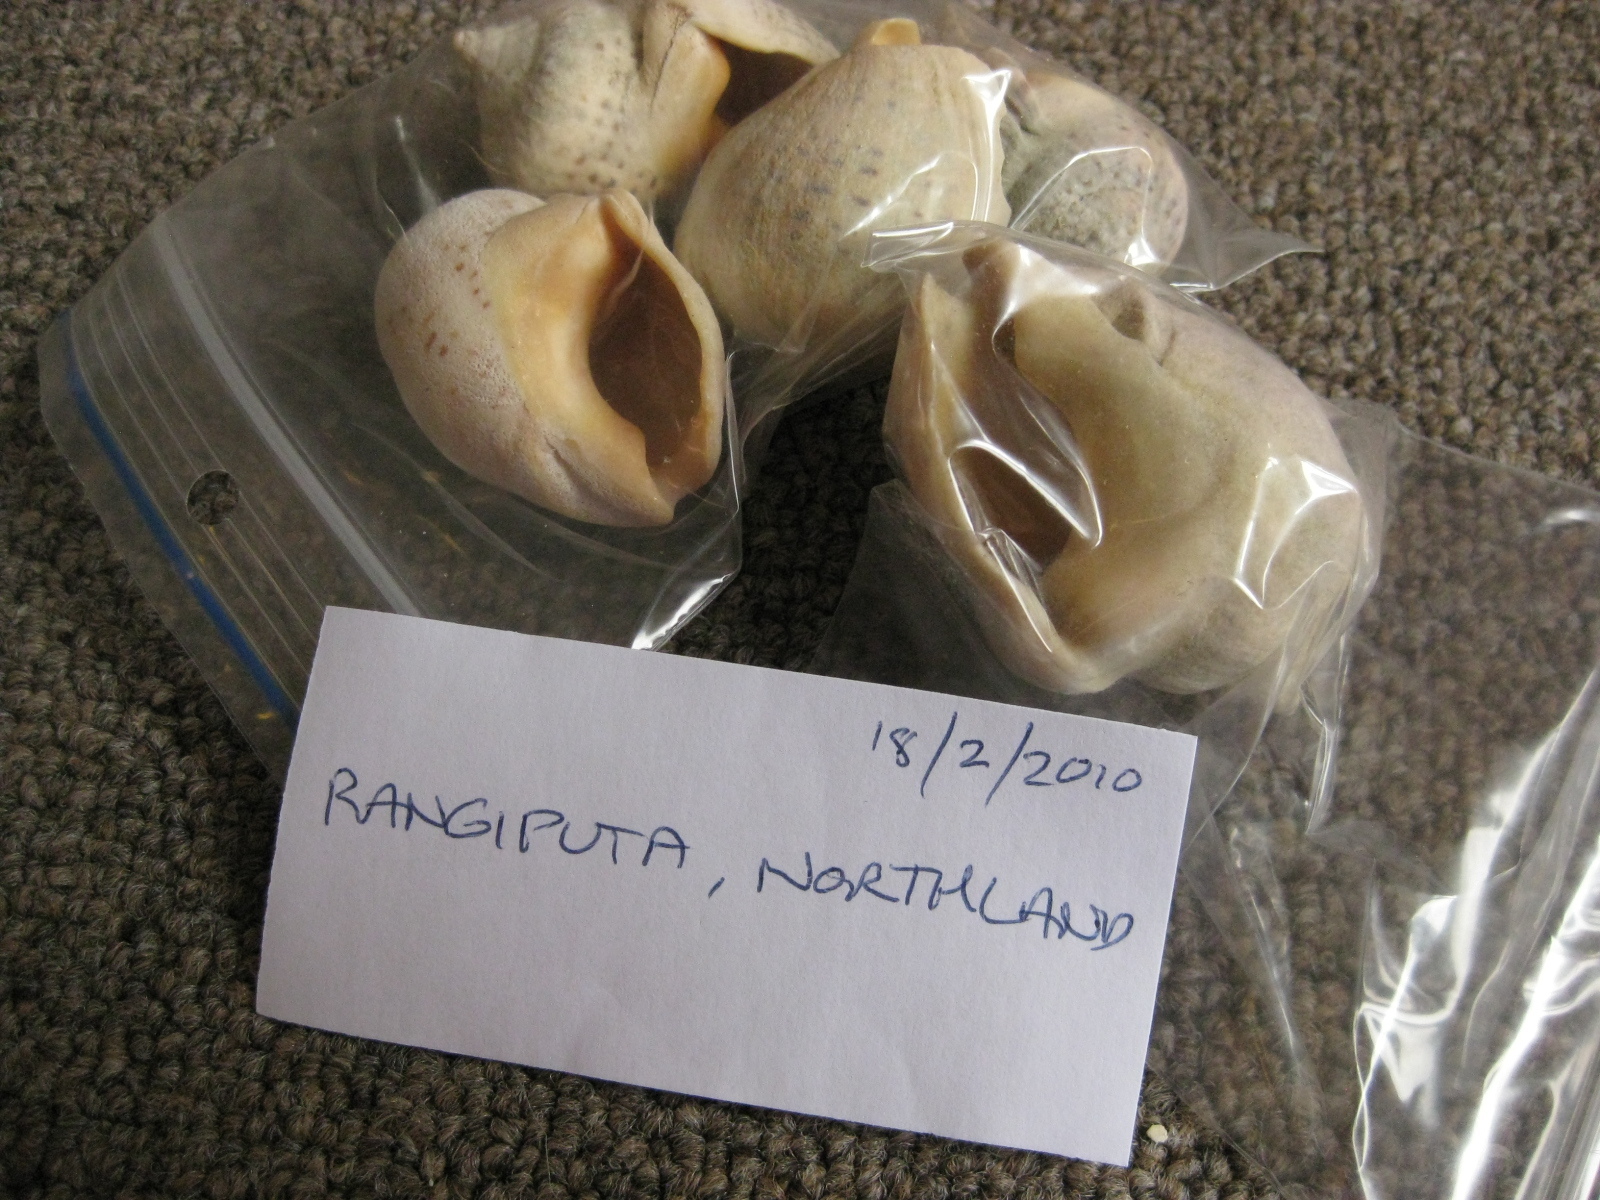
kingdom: Animalia
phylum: Mollusca
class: Gastropoda
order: Neogastropoda
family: Cominellidae
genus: Cominella
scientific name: Cominella adspersa
